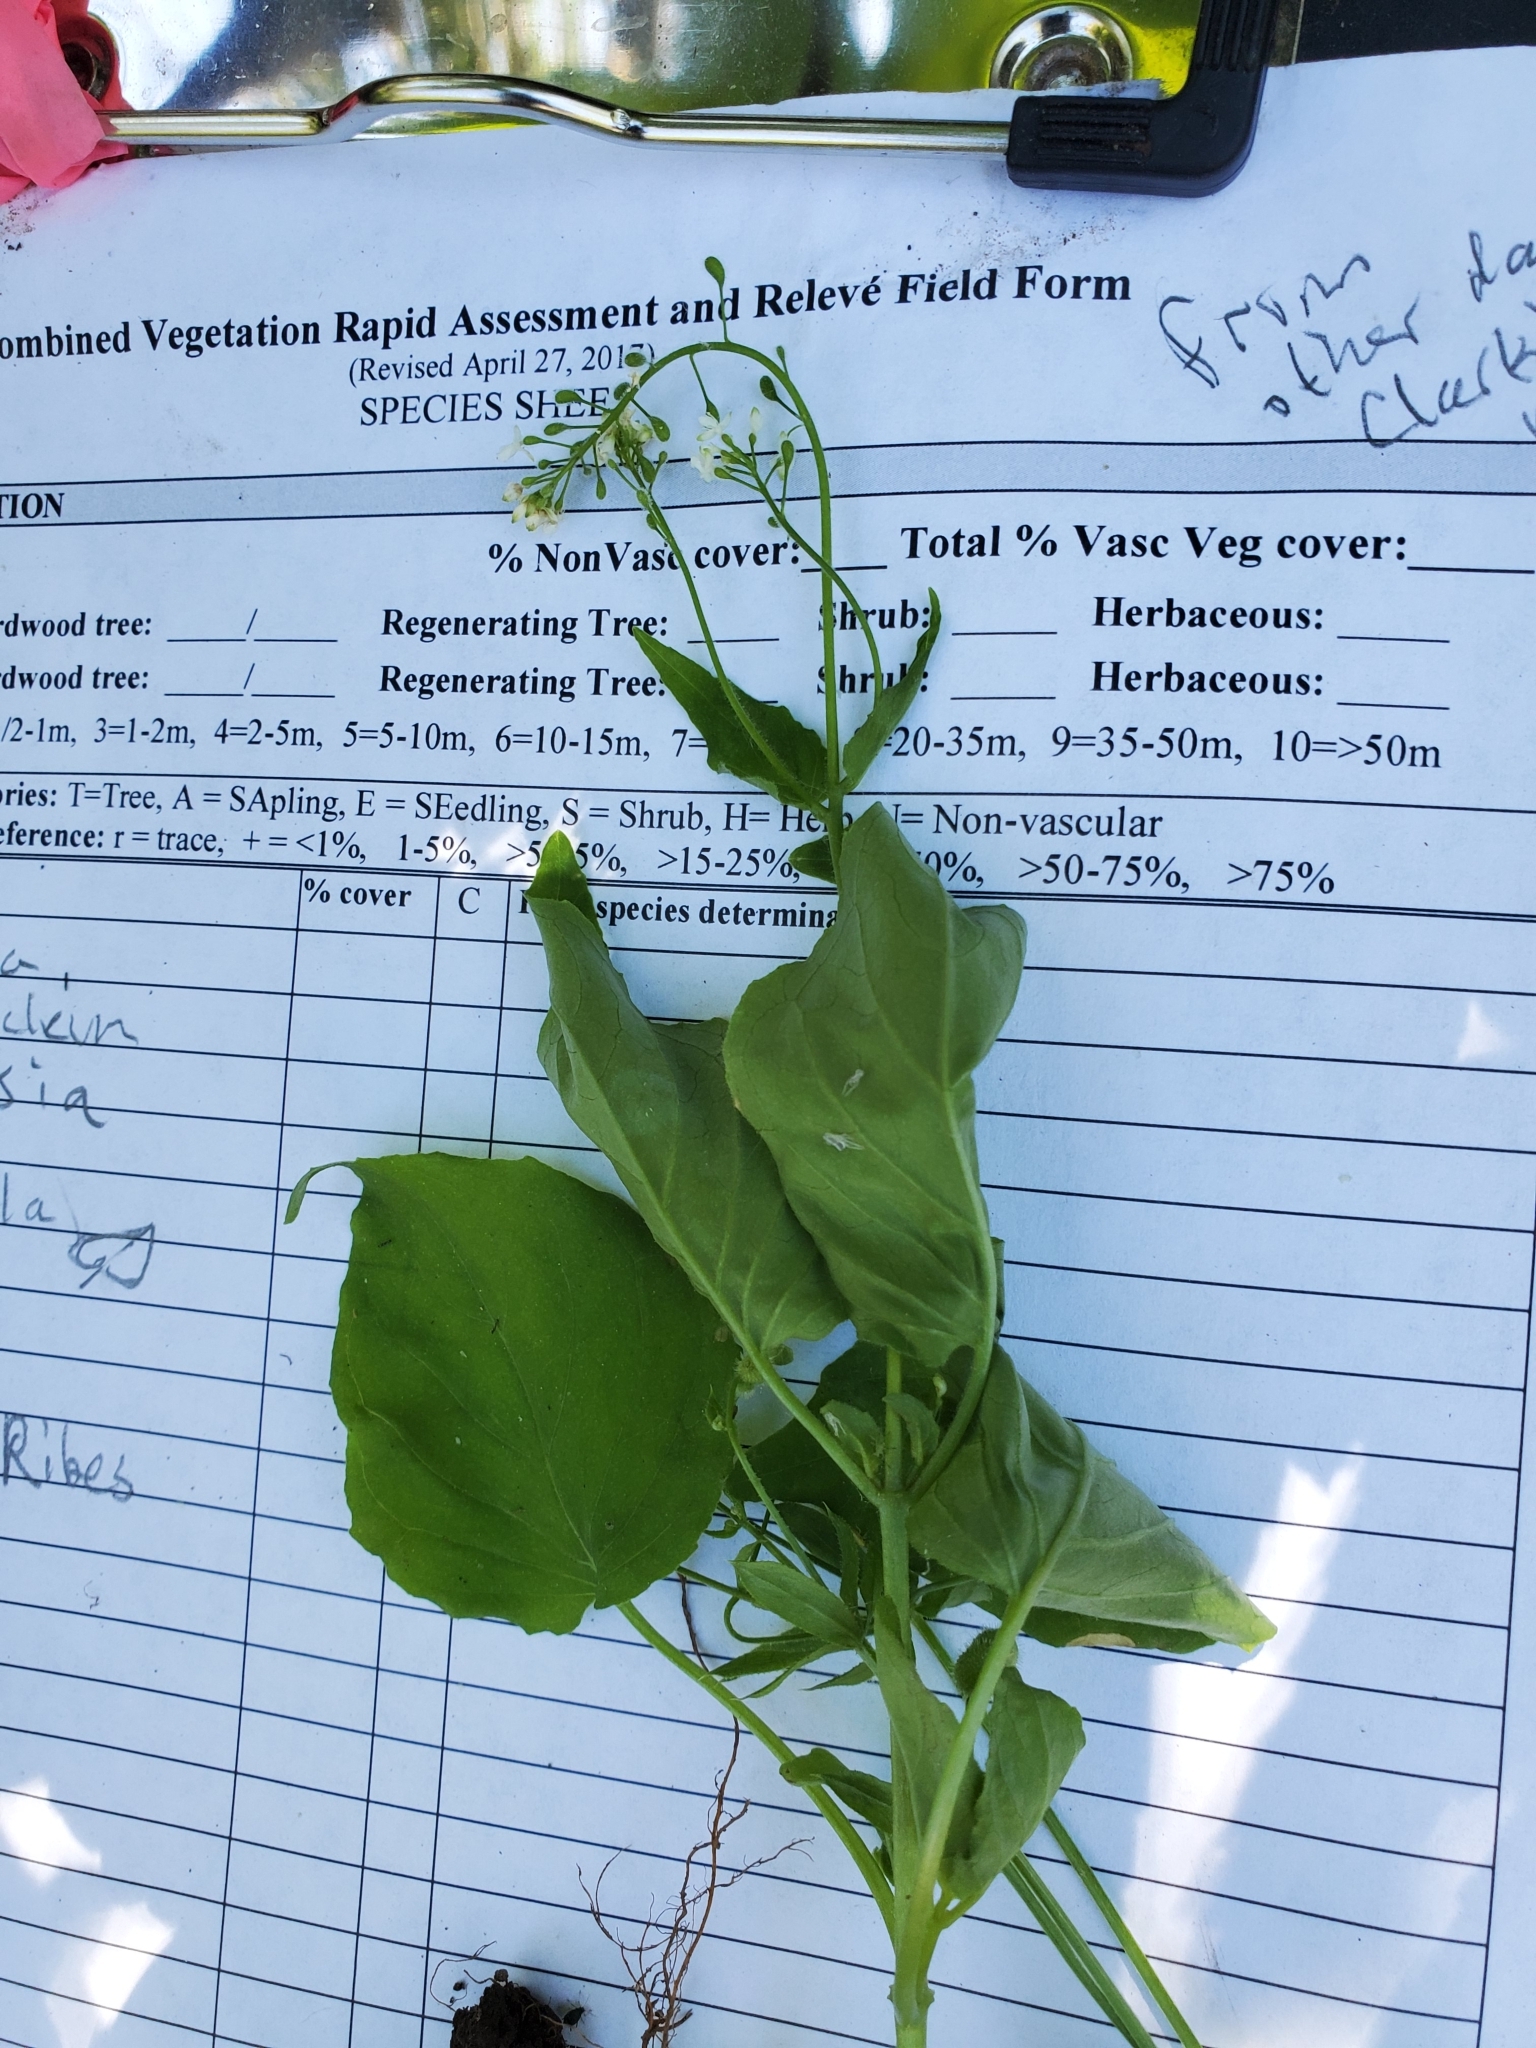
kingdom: Plantae
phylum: Tracheophyta
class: Magnoliopsida
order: Myrtales
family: Onagraceae
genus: Circaea
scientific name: Circaea alpina
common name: Alpine enchanter's-nightshade
